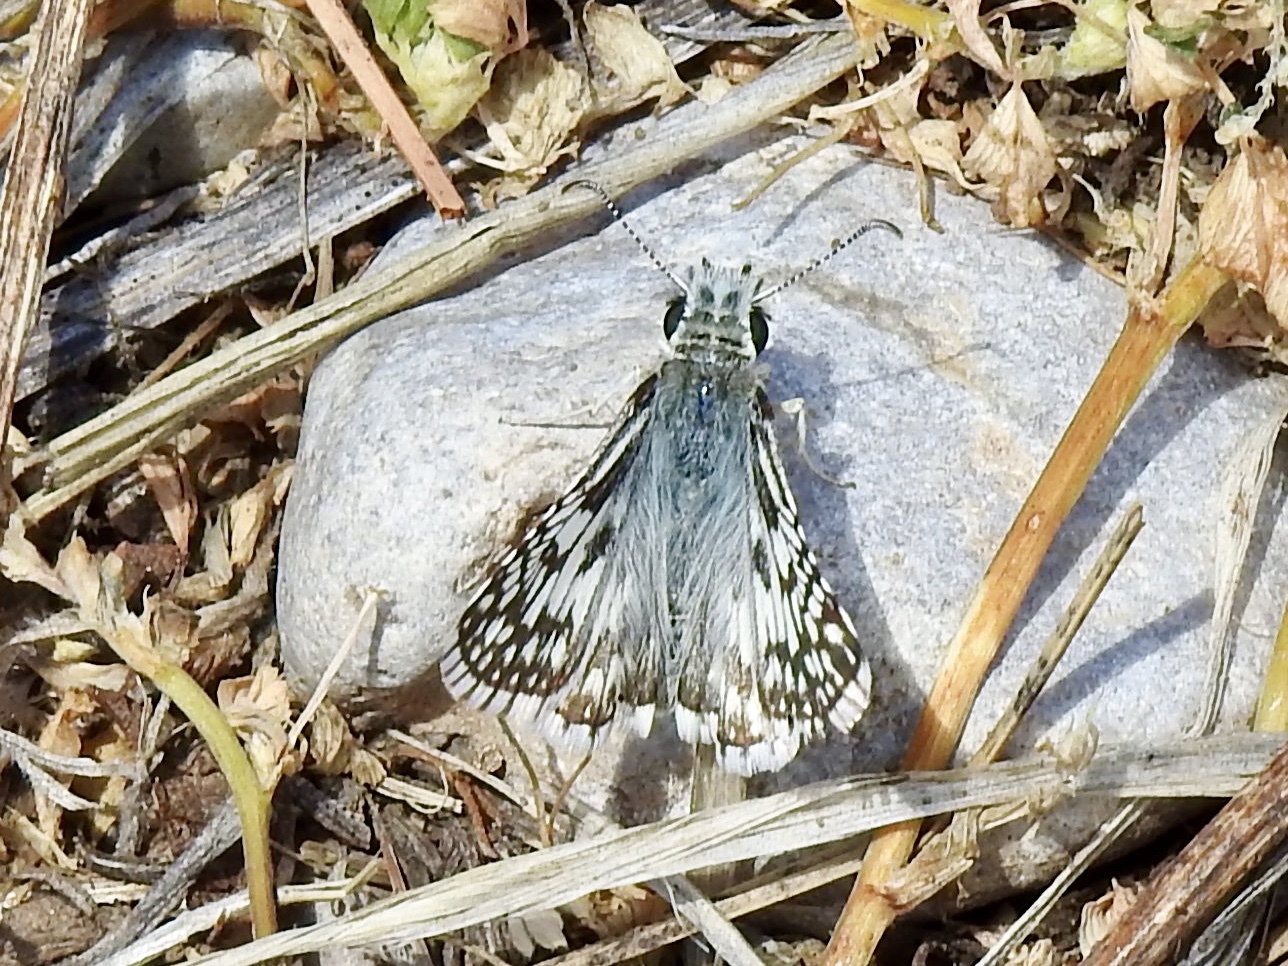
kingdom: Animalia
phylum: Arthropoda
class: Insecta
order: Lepidoptera
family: Hesperiidae
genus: Burnsius
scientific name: Burnsius
